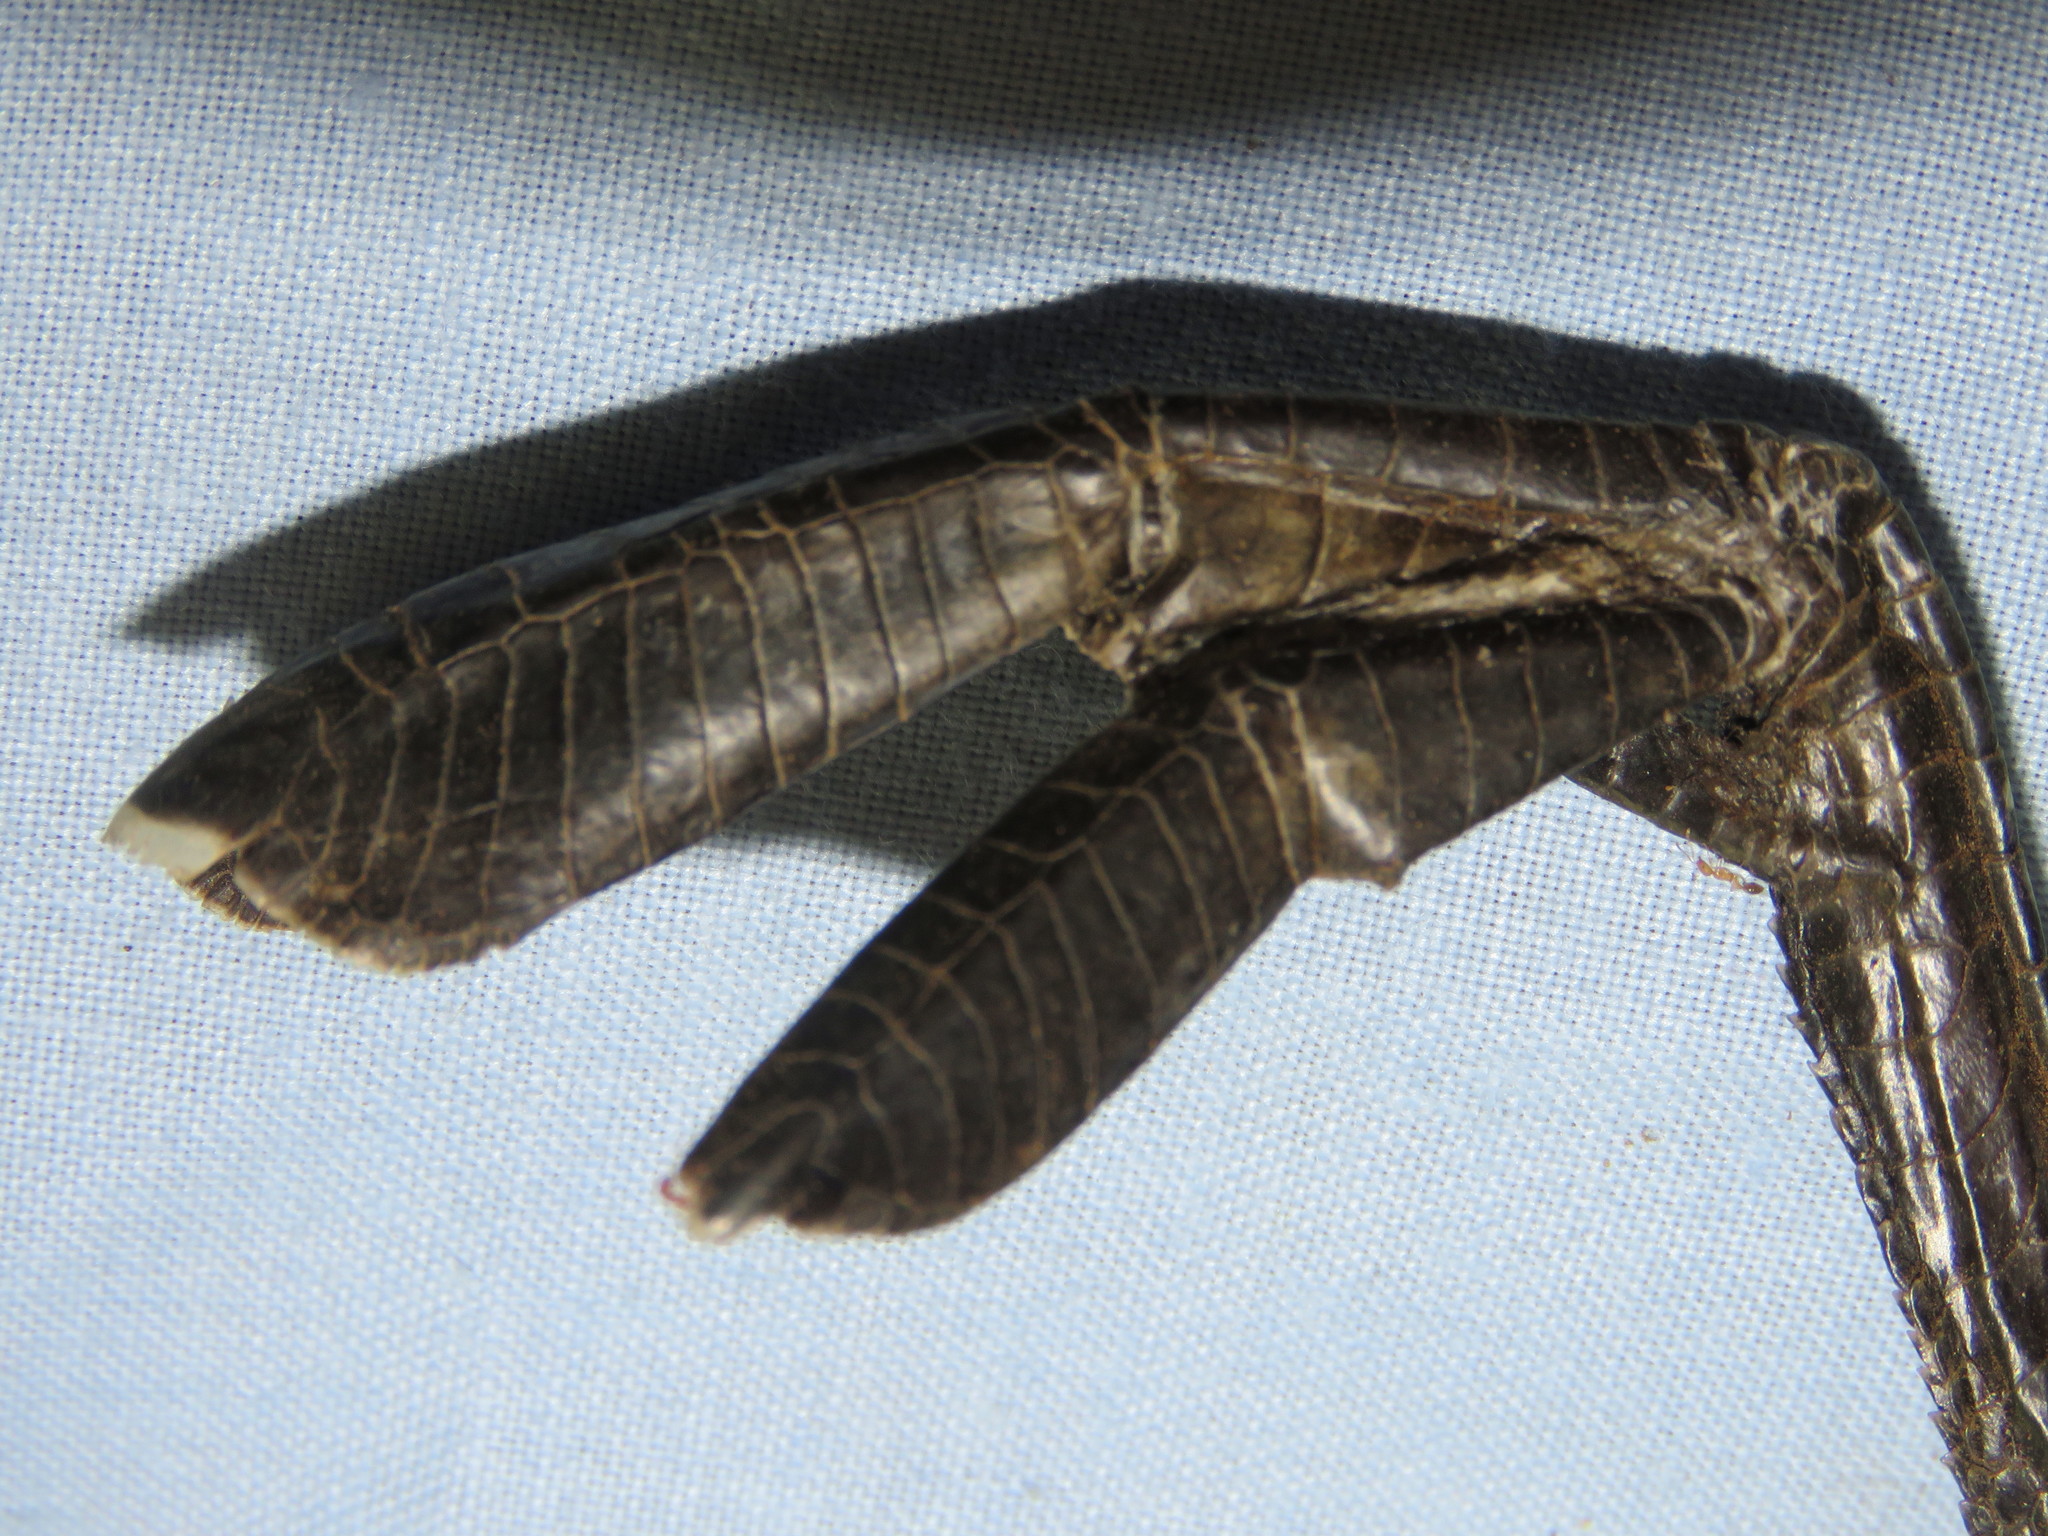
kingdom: Animalia
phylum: Chordata
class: Aves
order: Podicipediformes
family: Podicipedidae
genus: Tachybaptus
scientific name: Tachybaptus dominicus
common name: Least grebe
